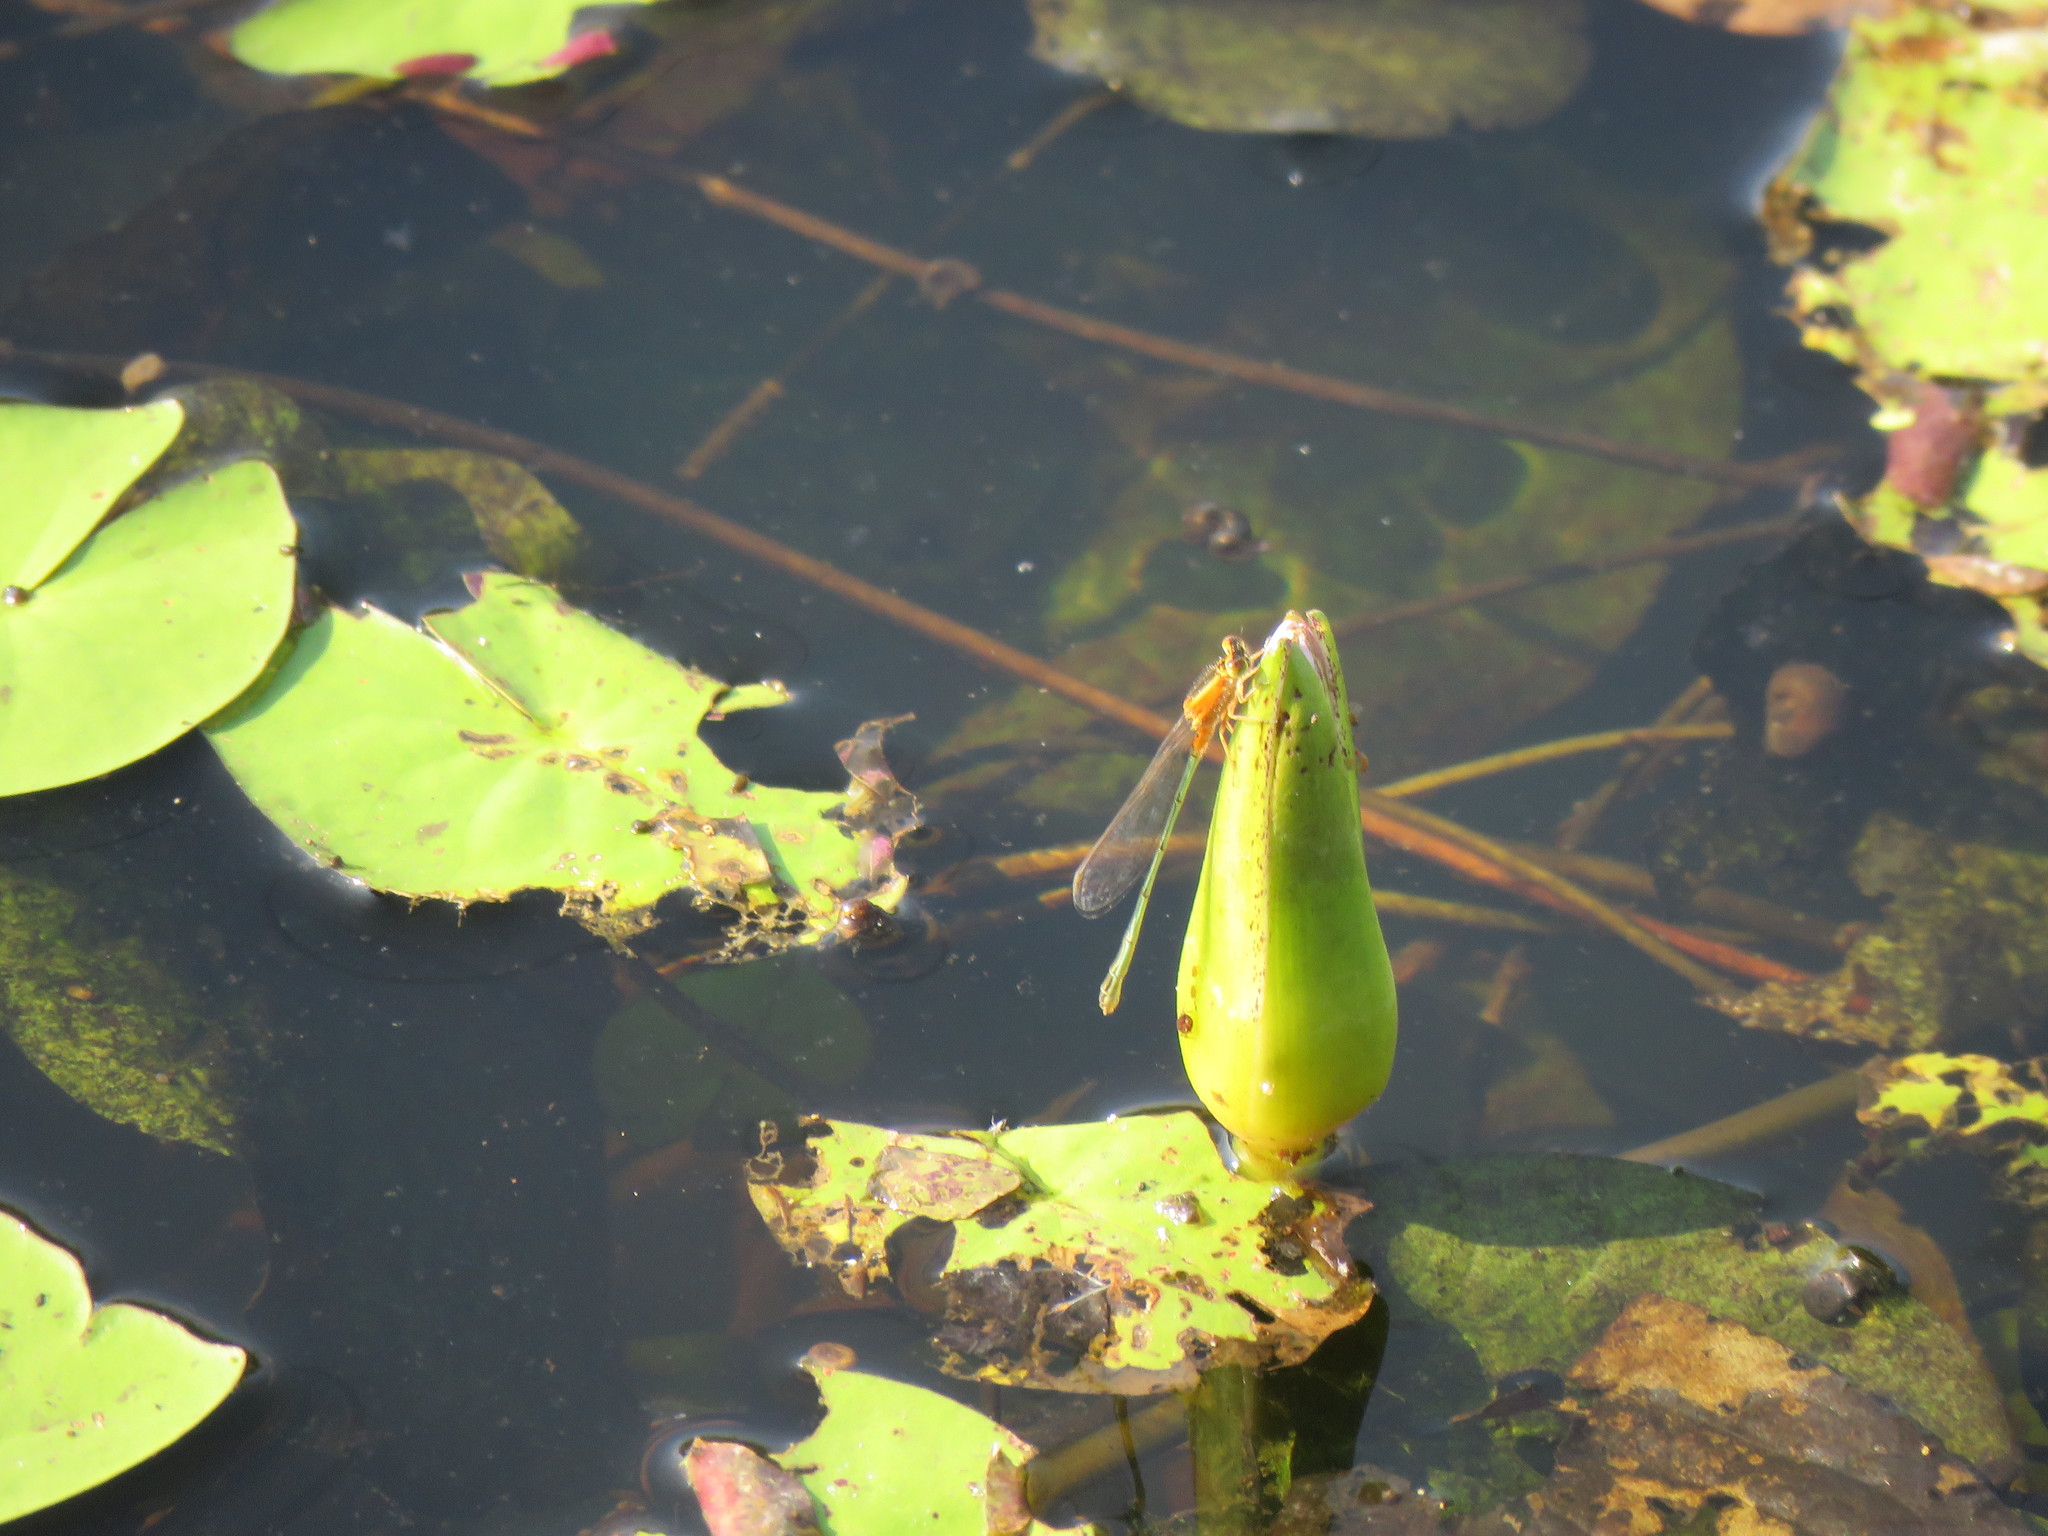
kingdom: Animalia
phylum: Arthropoda
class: Insecta
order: Odonata
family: Coenagrionidae
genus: Ischnura
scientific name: Ischnura senegalensis
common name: Tropical bluetail
